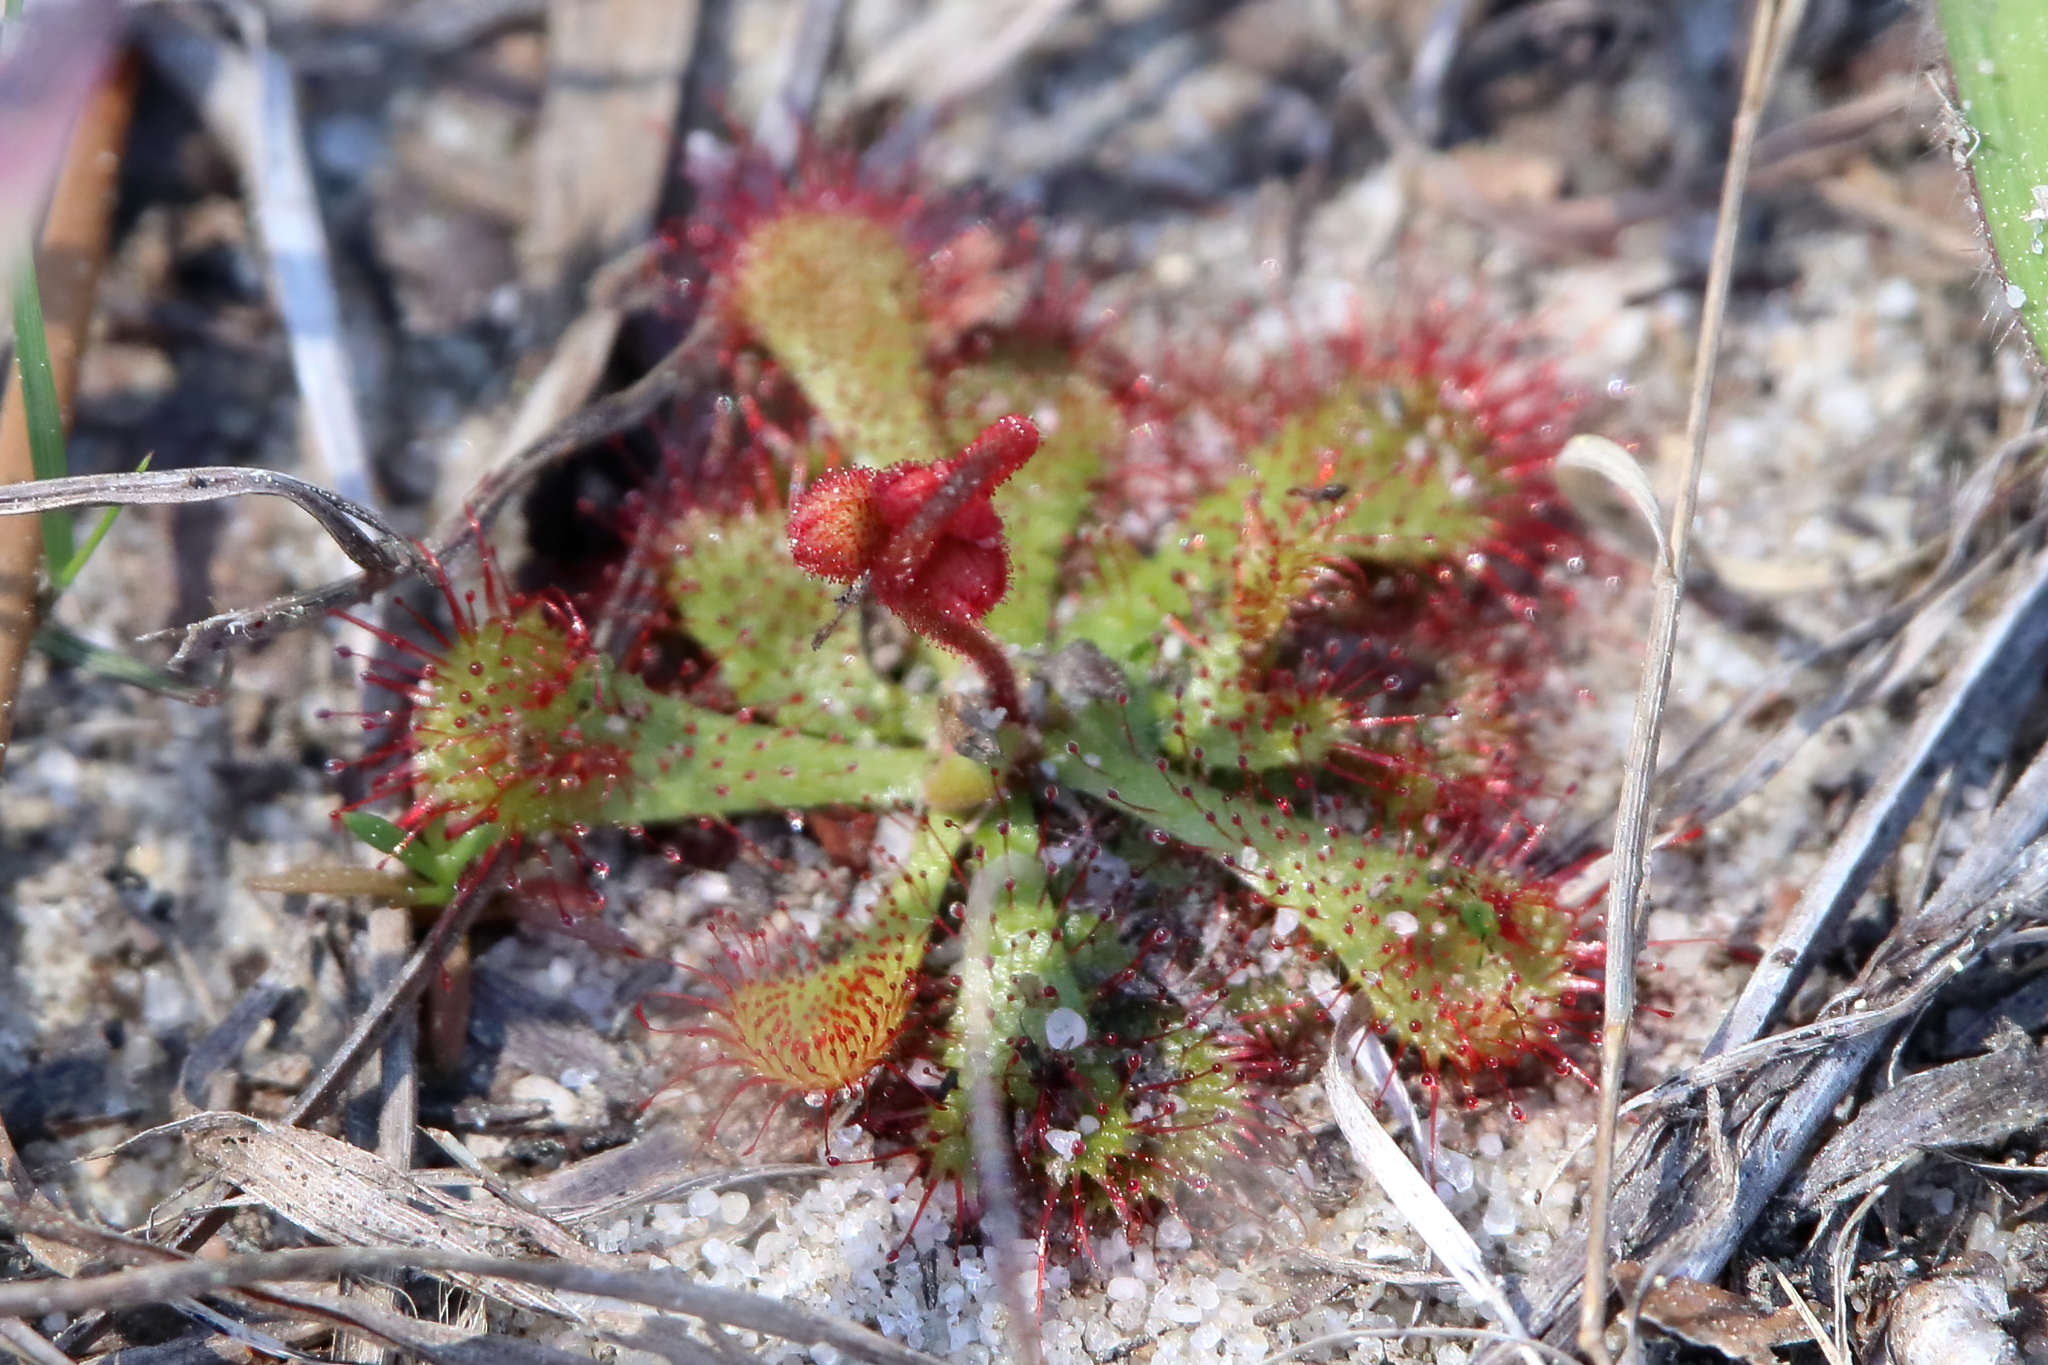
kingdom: Plantae
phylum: Tracheophyta
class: Magnoliopsida
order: Caryophyllales
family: Droseraceae
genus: Drosera
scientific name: Drosera brevifolia
